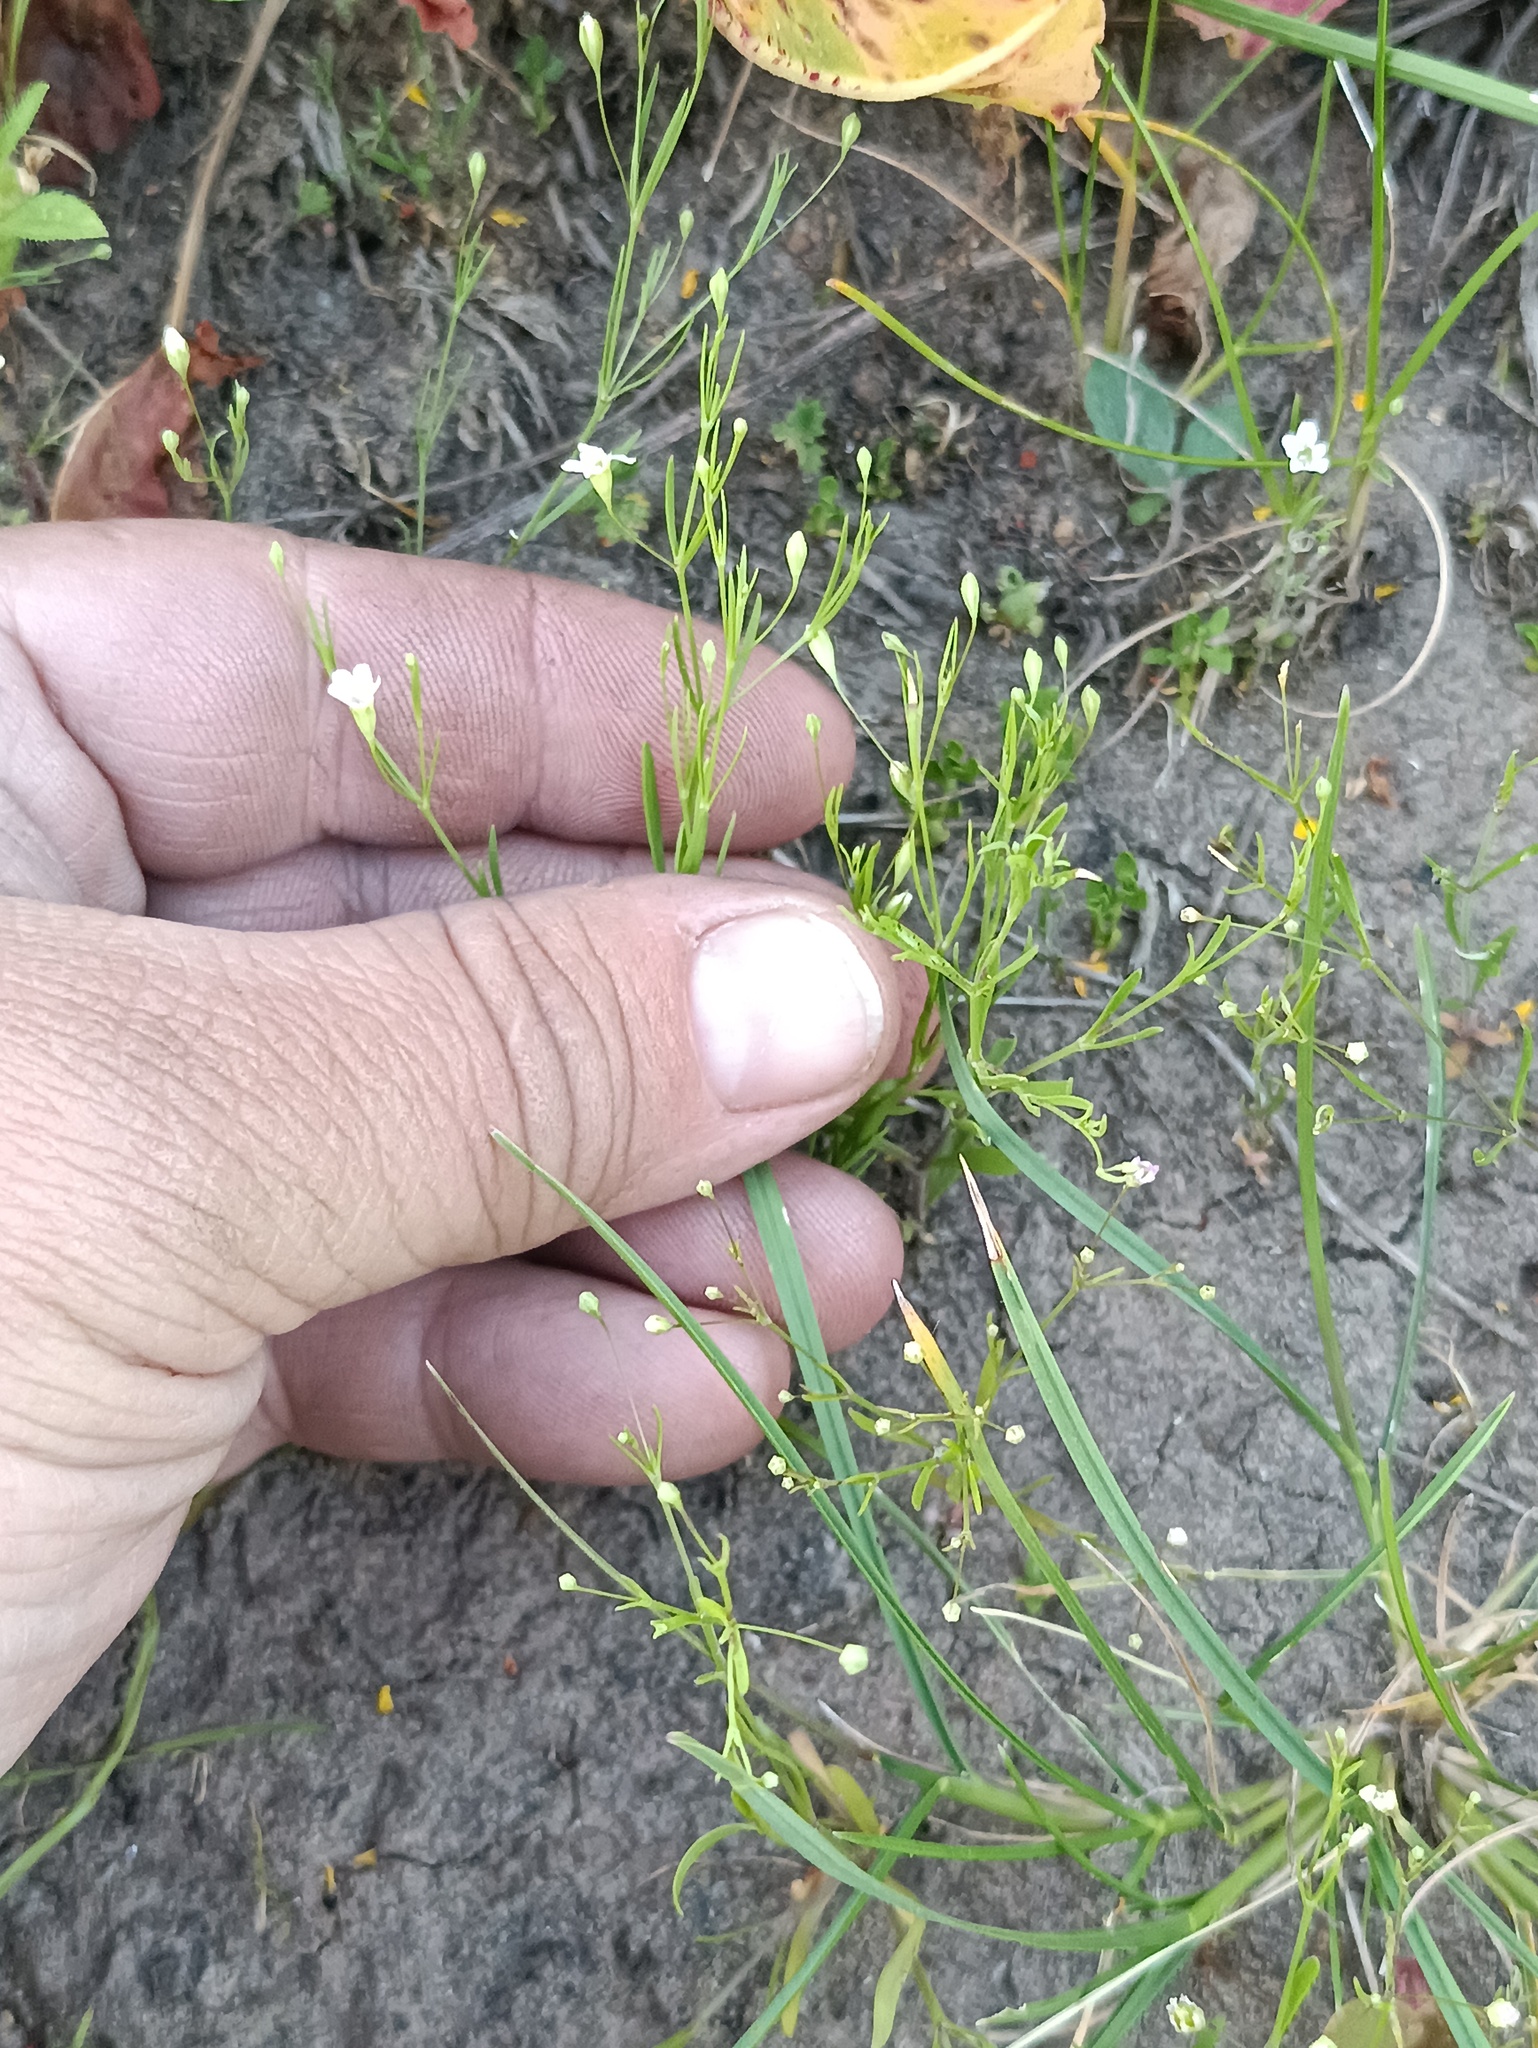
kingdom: Plantae
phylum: Tracheophyta
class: Magnoliopsida
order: Caryophyllales
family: Caryophyllaceae
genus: Psammophiliella
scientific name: Psammophiliella muralis
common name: Cushion baby's-breath
